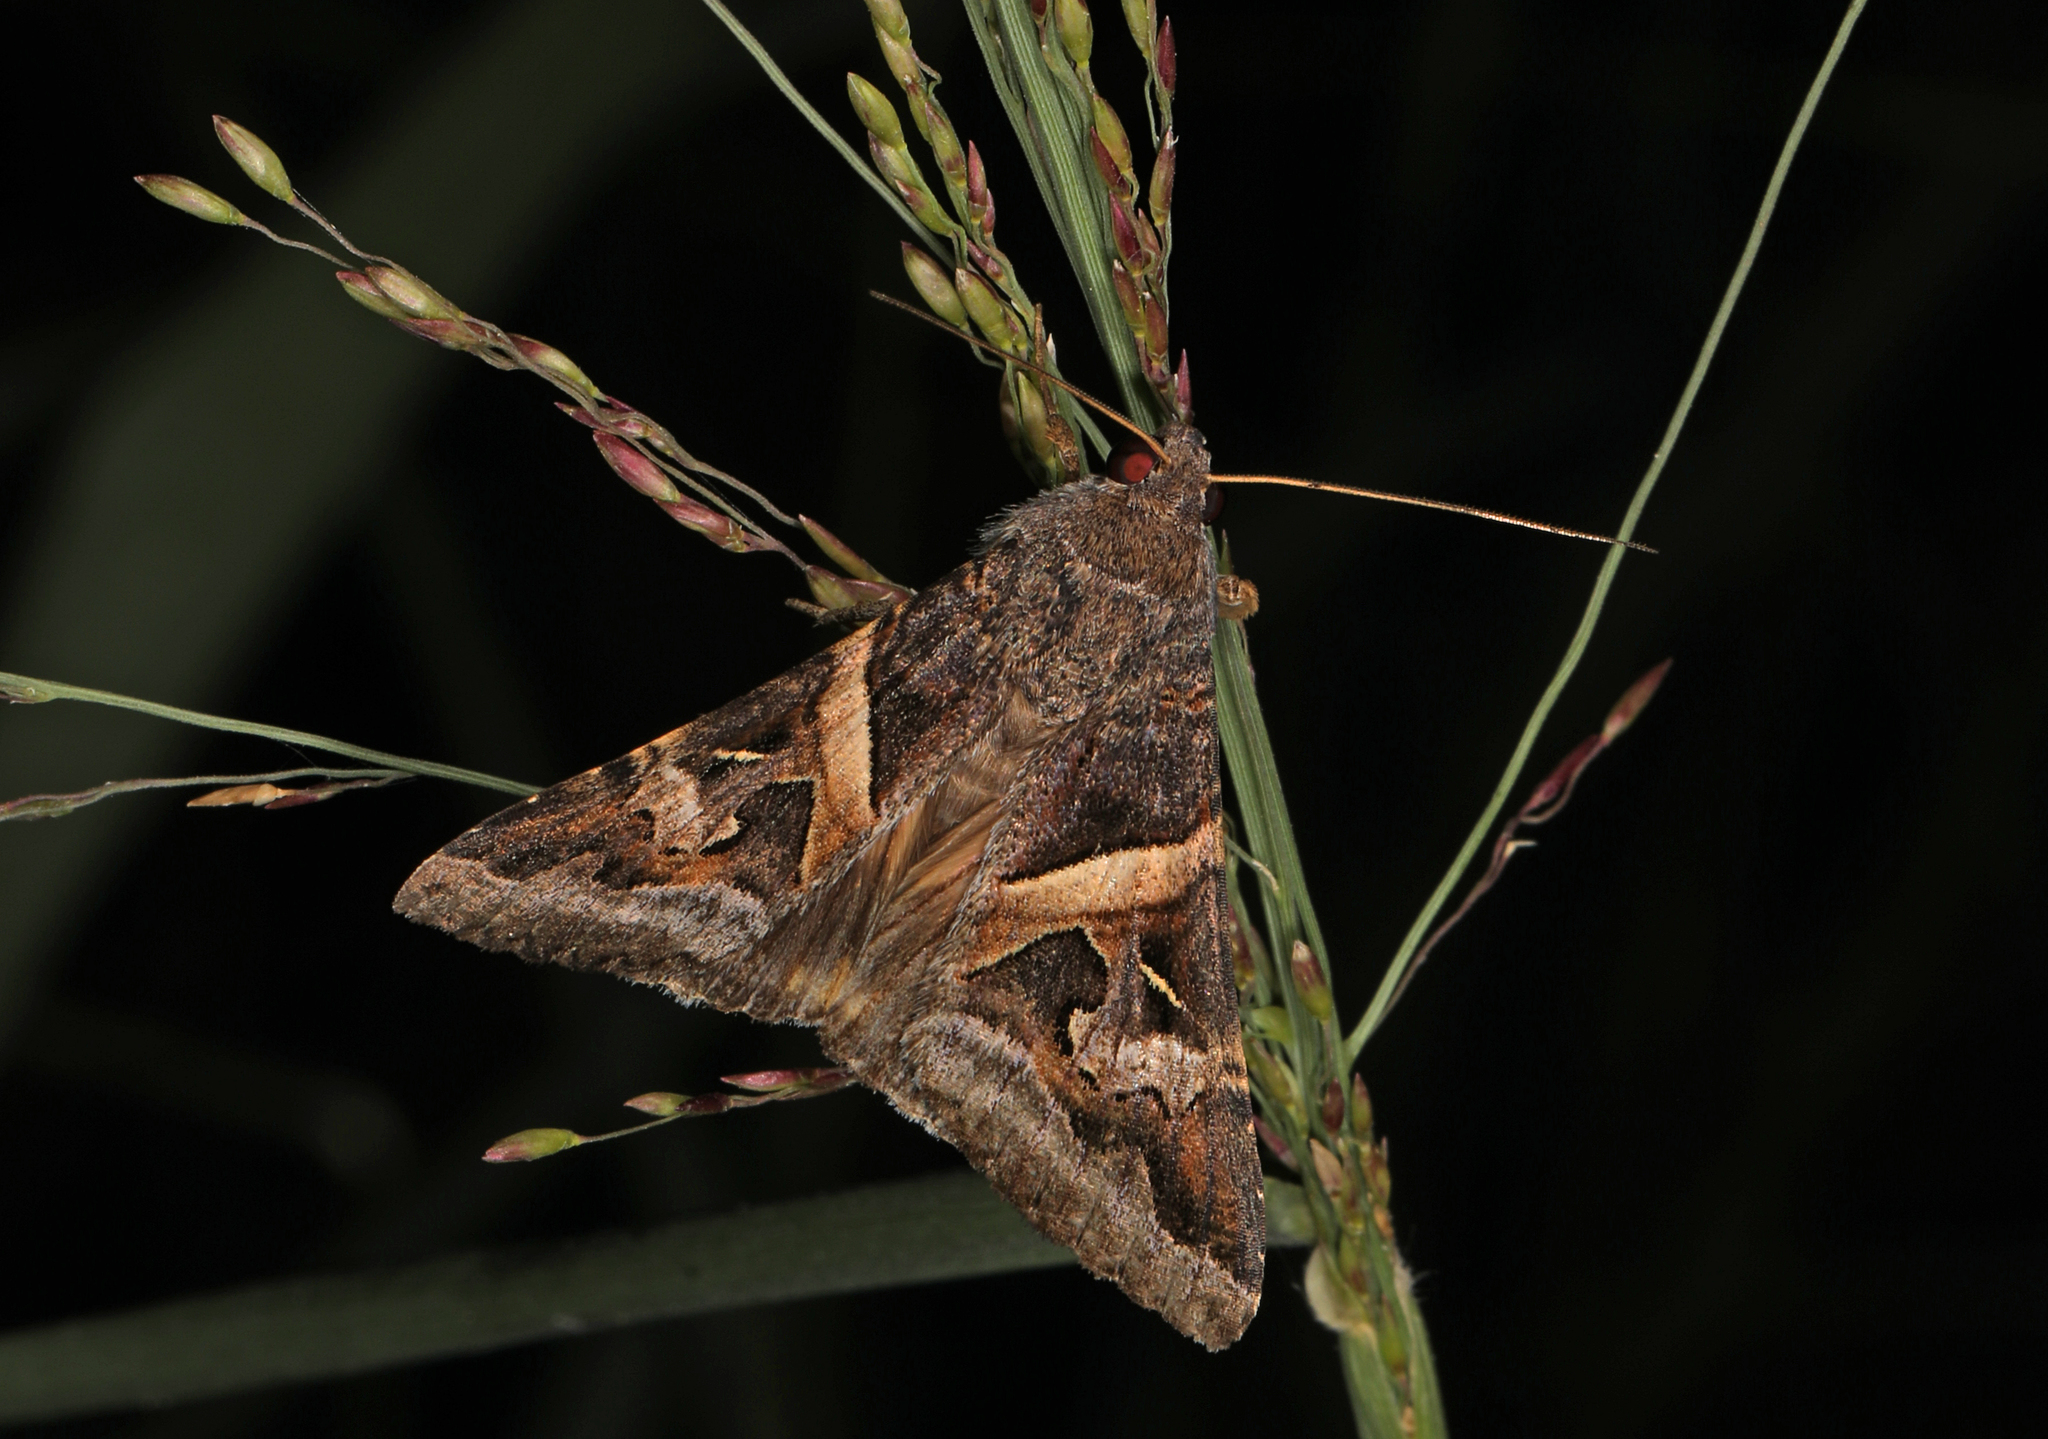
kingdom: Animalia
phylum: Arthropoda
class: Insecta
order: Lepidoptera
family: Erebidae
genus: Melipotis
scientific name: Melipotis indomita
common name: Moth
